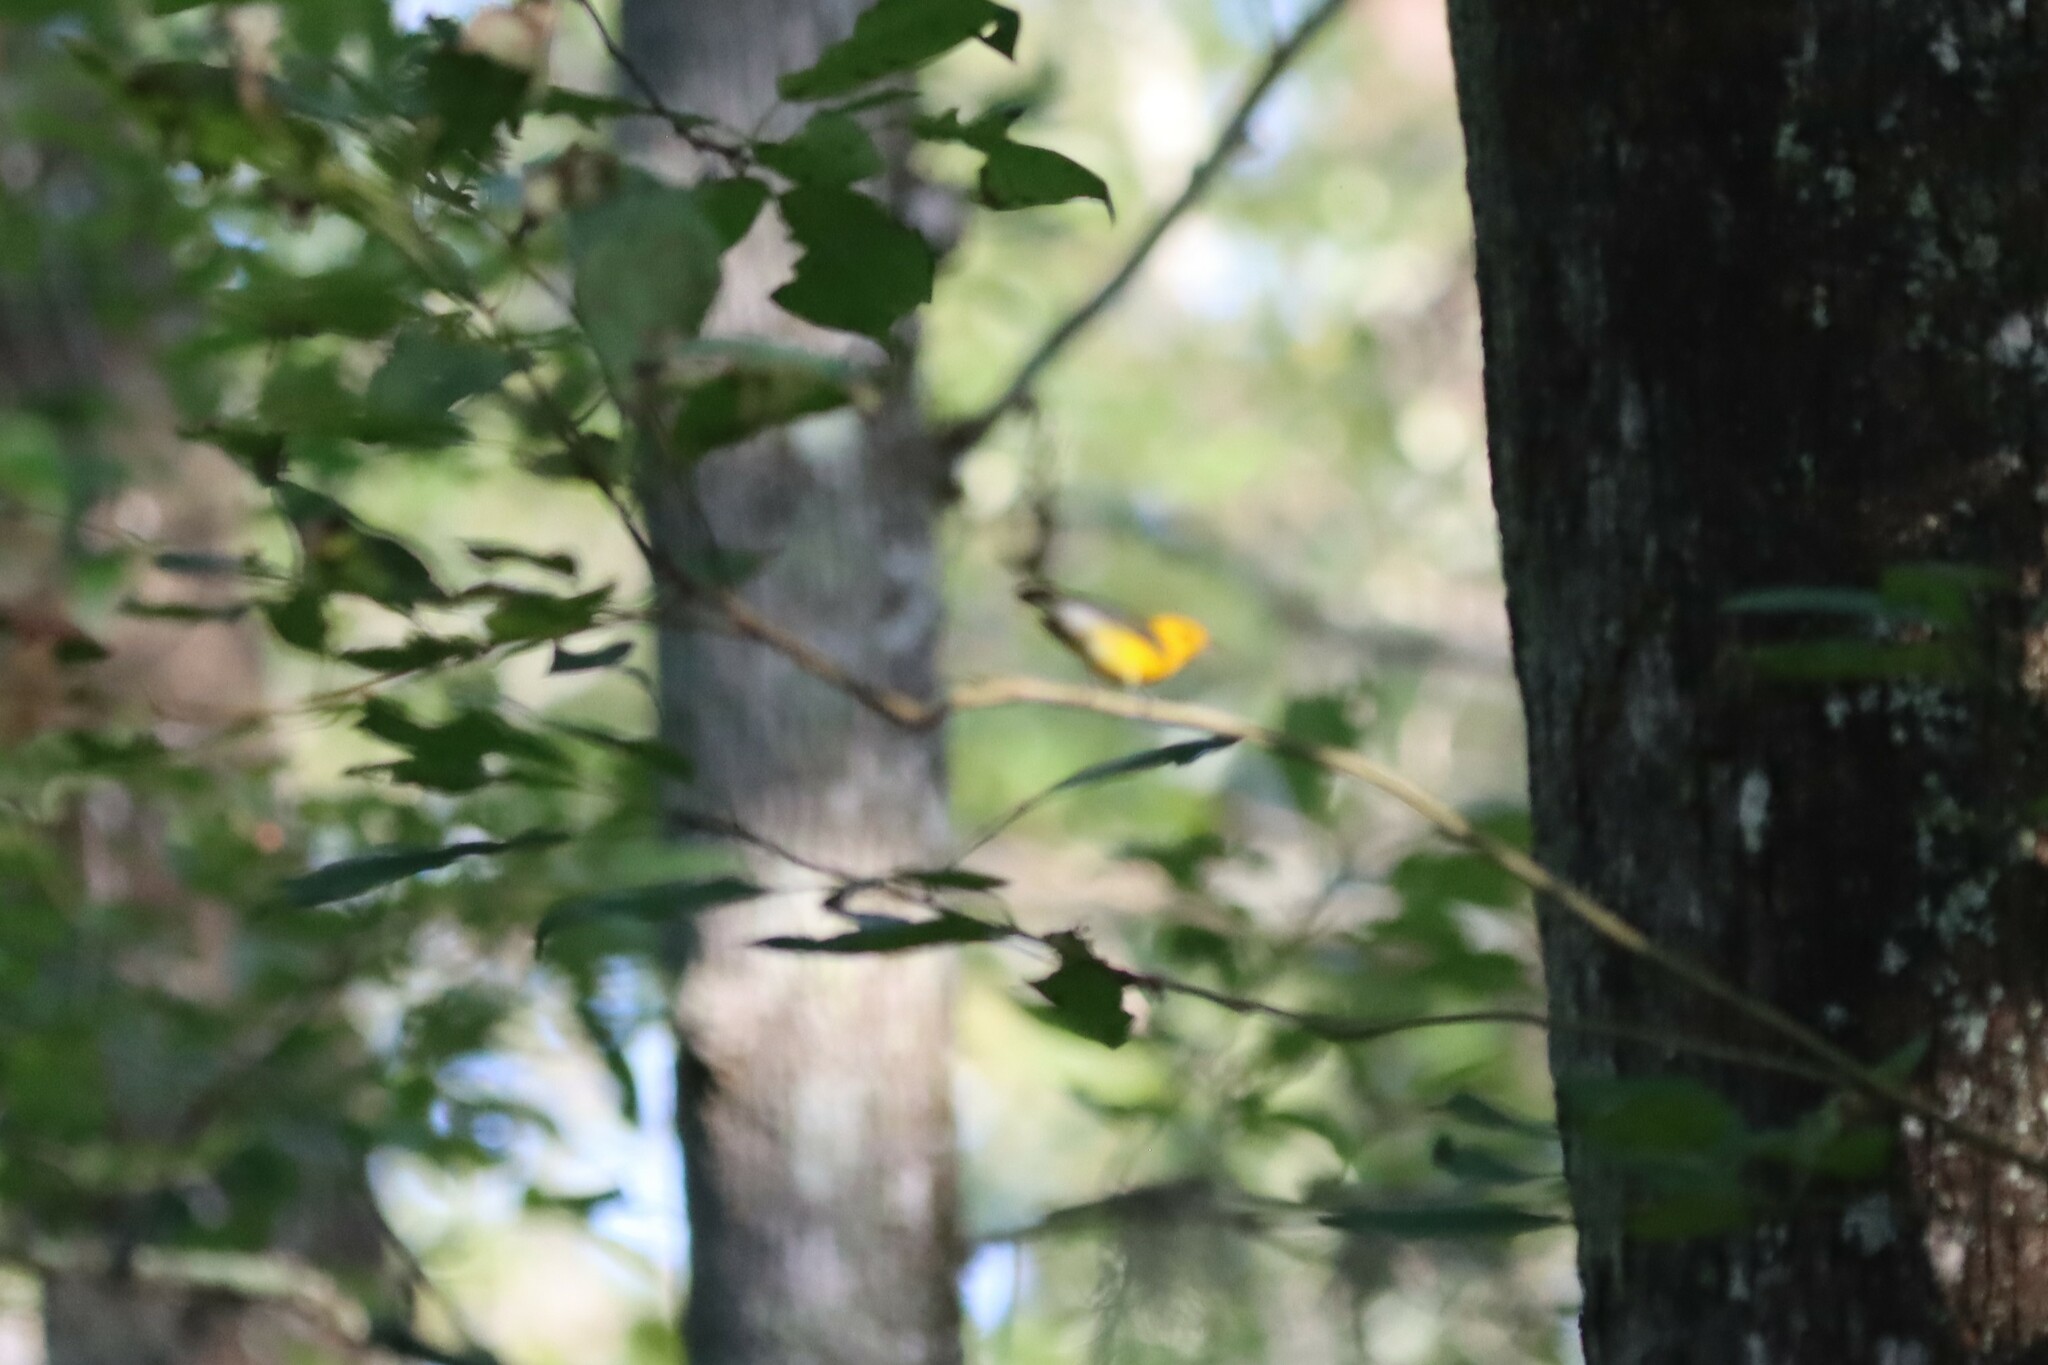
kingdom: Animalia
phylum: Chordata
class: Aves
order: Passeriformes
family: Parulidae
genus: Protonotaria
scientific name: Protonotaria citrea
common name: Prothonotary warbler
